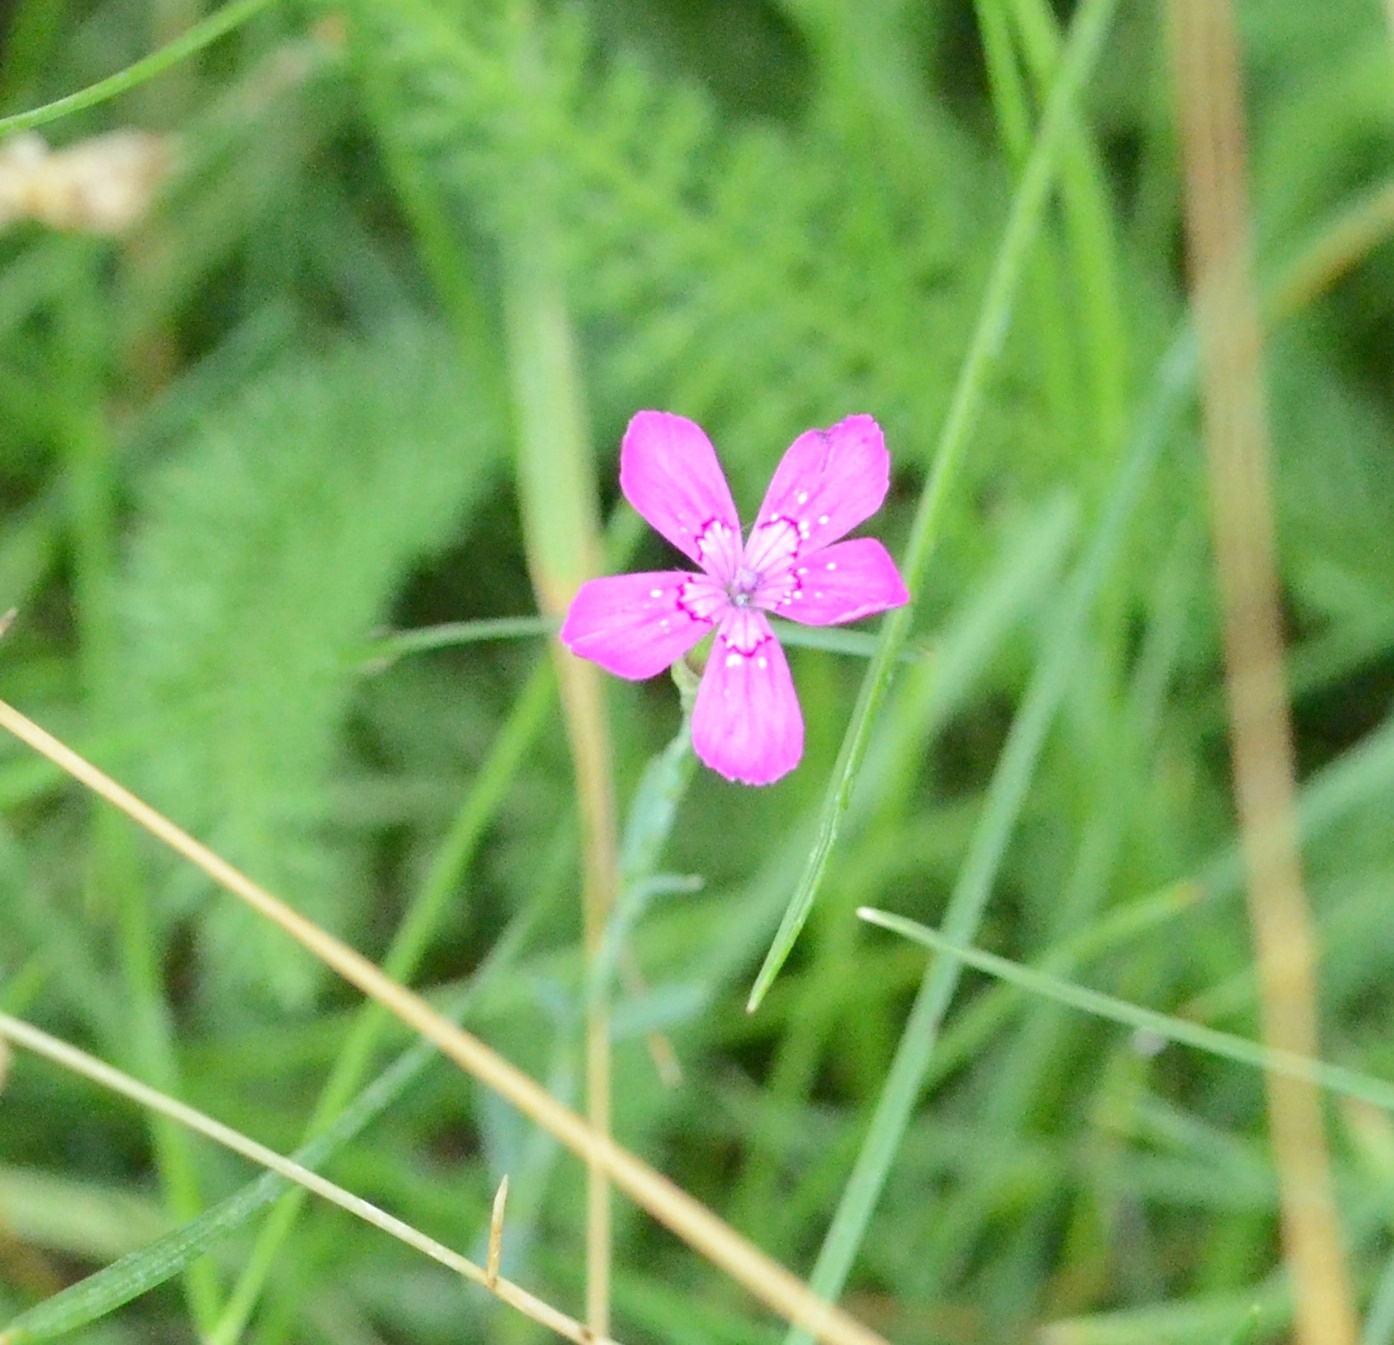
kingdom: Plantae
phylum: Tracheophyta
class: Magnoliopsida
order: Caryophyllales
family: Caryophyllaceae
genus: Dianthus
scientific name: Dianthus deltoides
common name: Maiden pink
